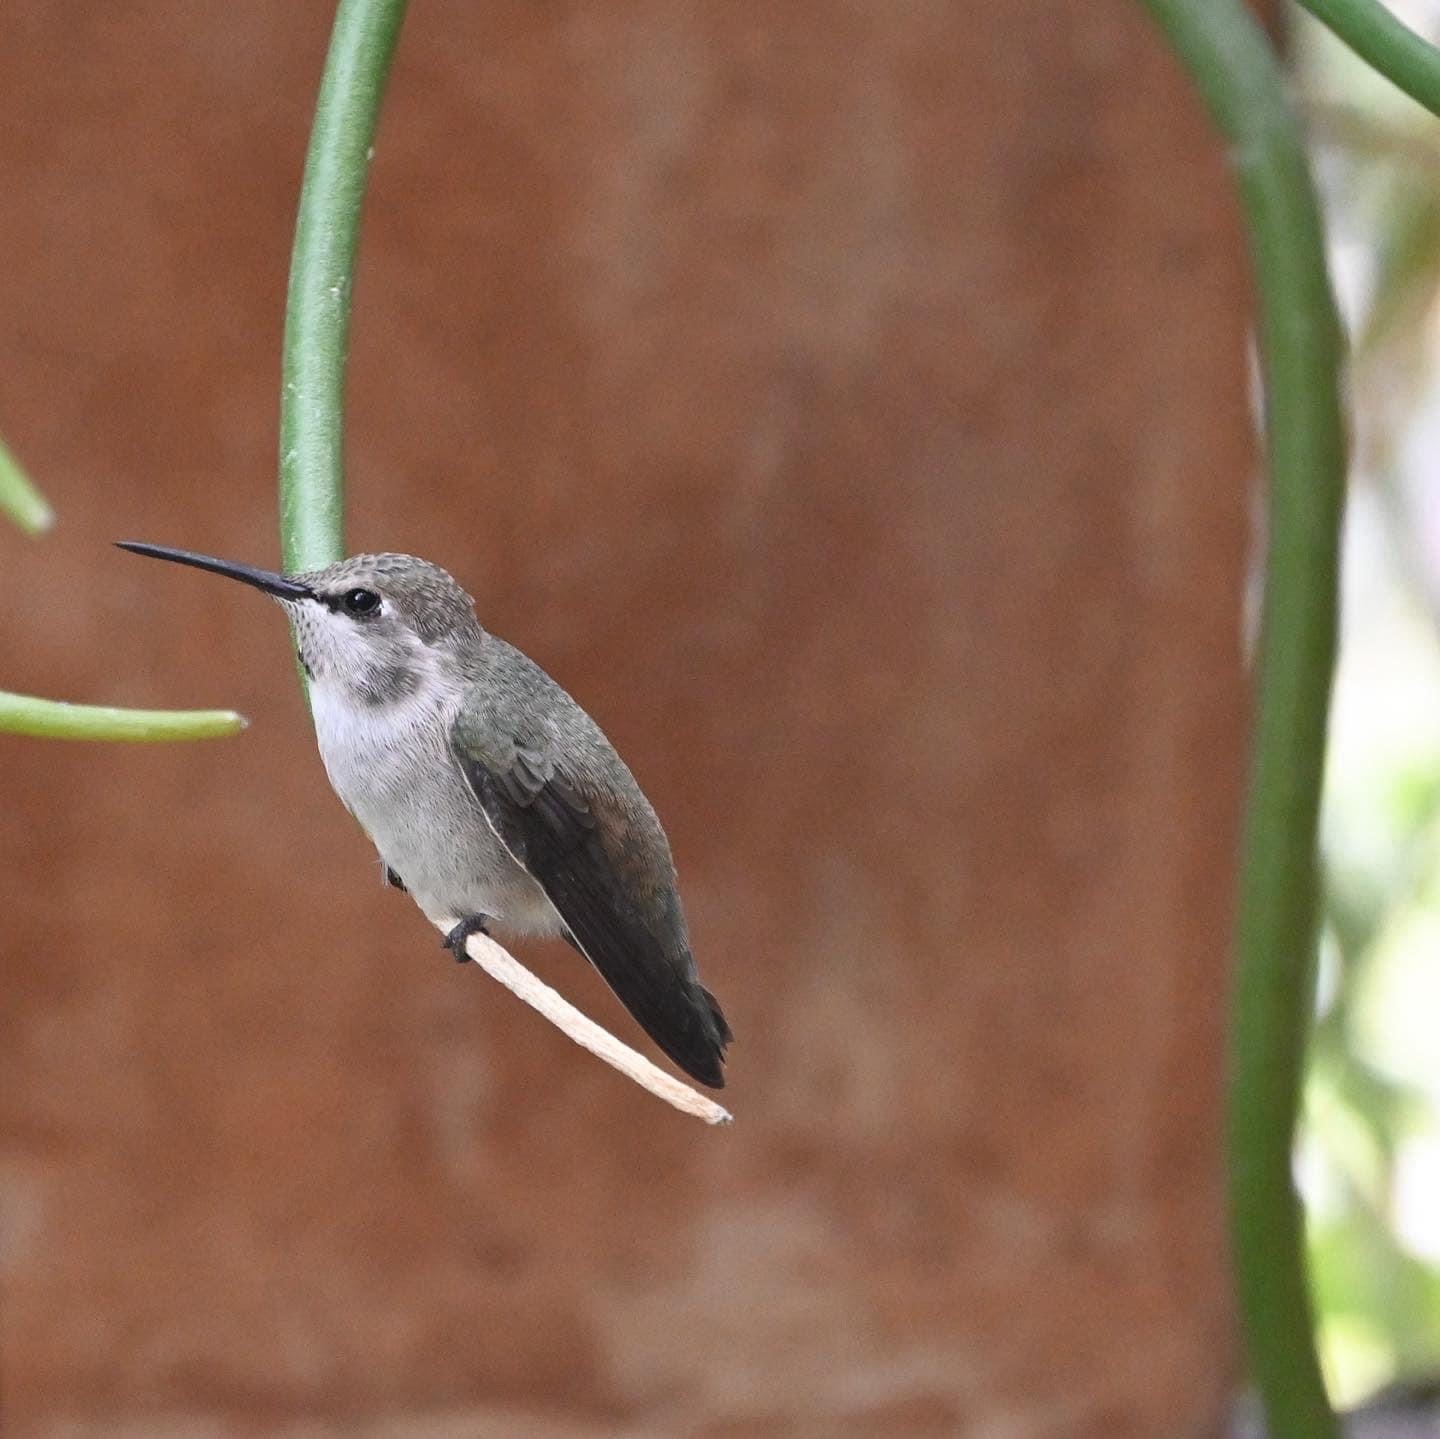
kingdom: Animalia
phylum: Chordata
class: Aves
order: Apodiformes
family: Trochilidae
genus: Calypte
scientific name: Calypte costae
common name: Costa's hummingbird
